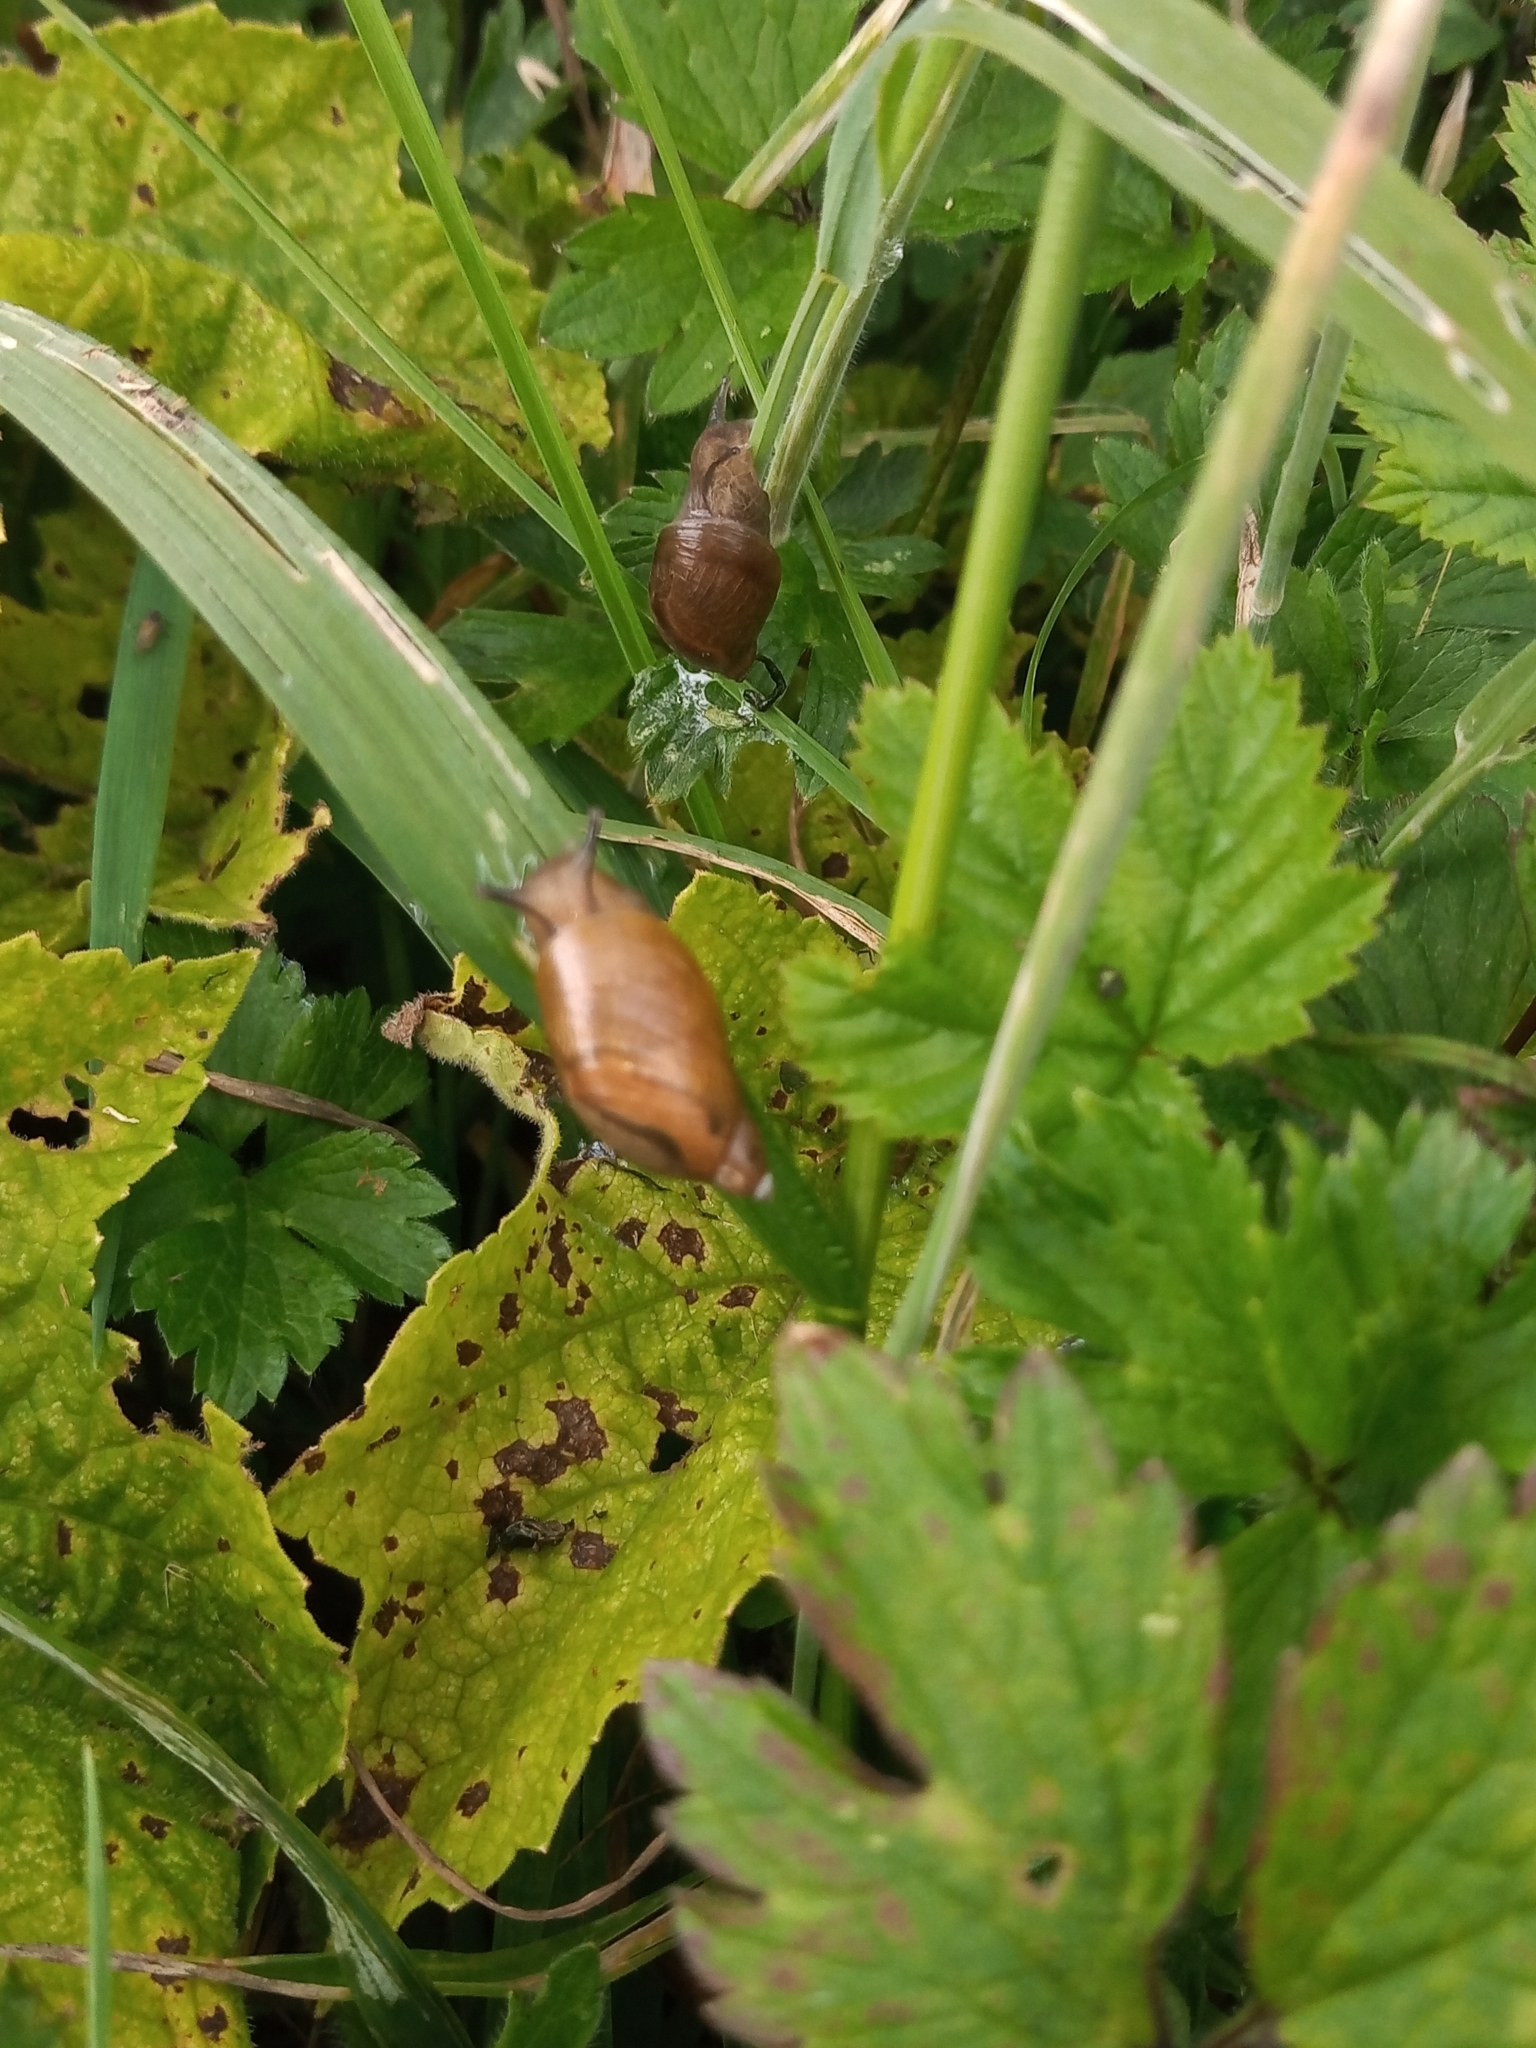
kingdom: Animalia
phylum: Mollusca
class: Gastropoda
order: Stylommatophora
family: Succineidae
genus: Succinea
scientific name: Succinea putris
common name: European ambersnail
